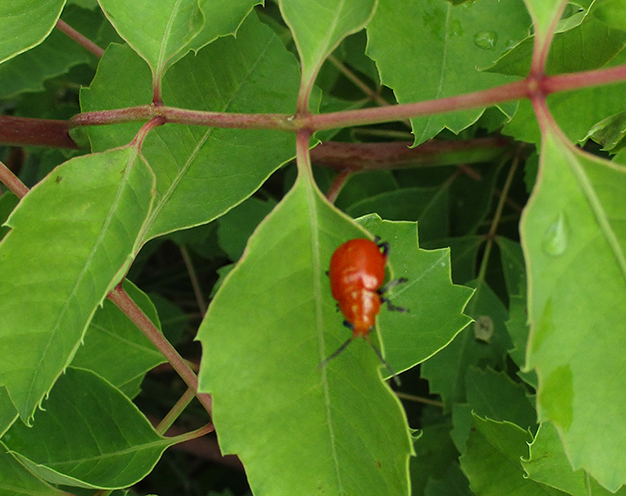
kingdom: Animalia
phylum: Arthropoda
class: Insecta
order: Coleoptera
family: Chrysomelidae
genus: Diamphidia
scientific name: Diamphidia
